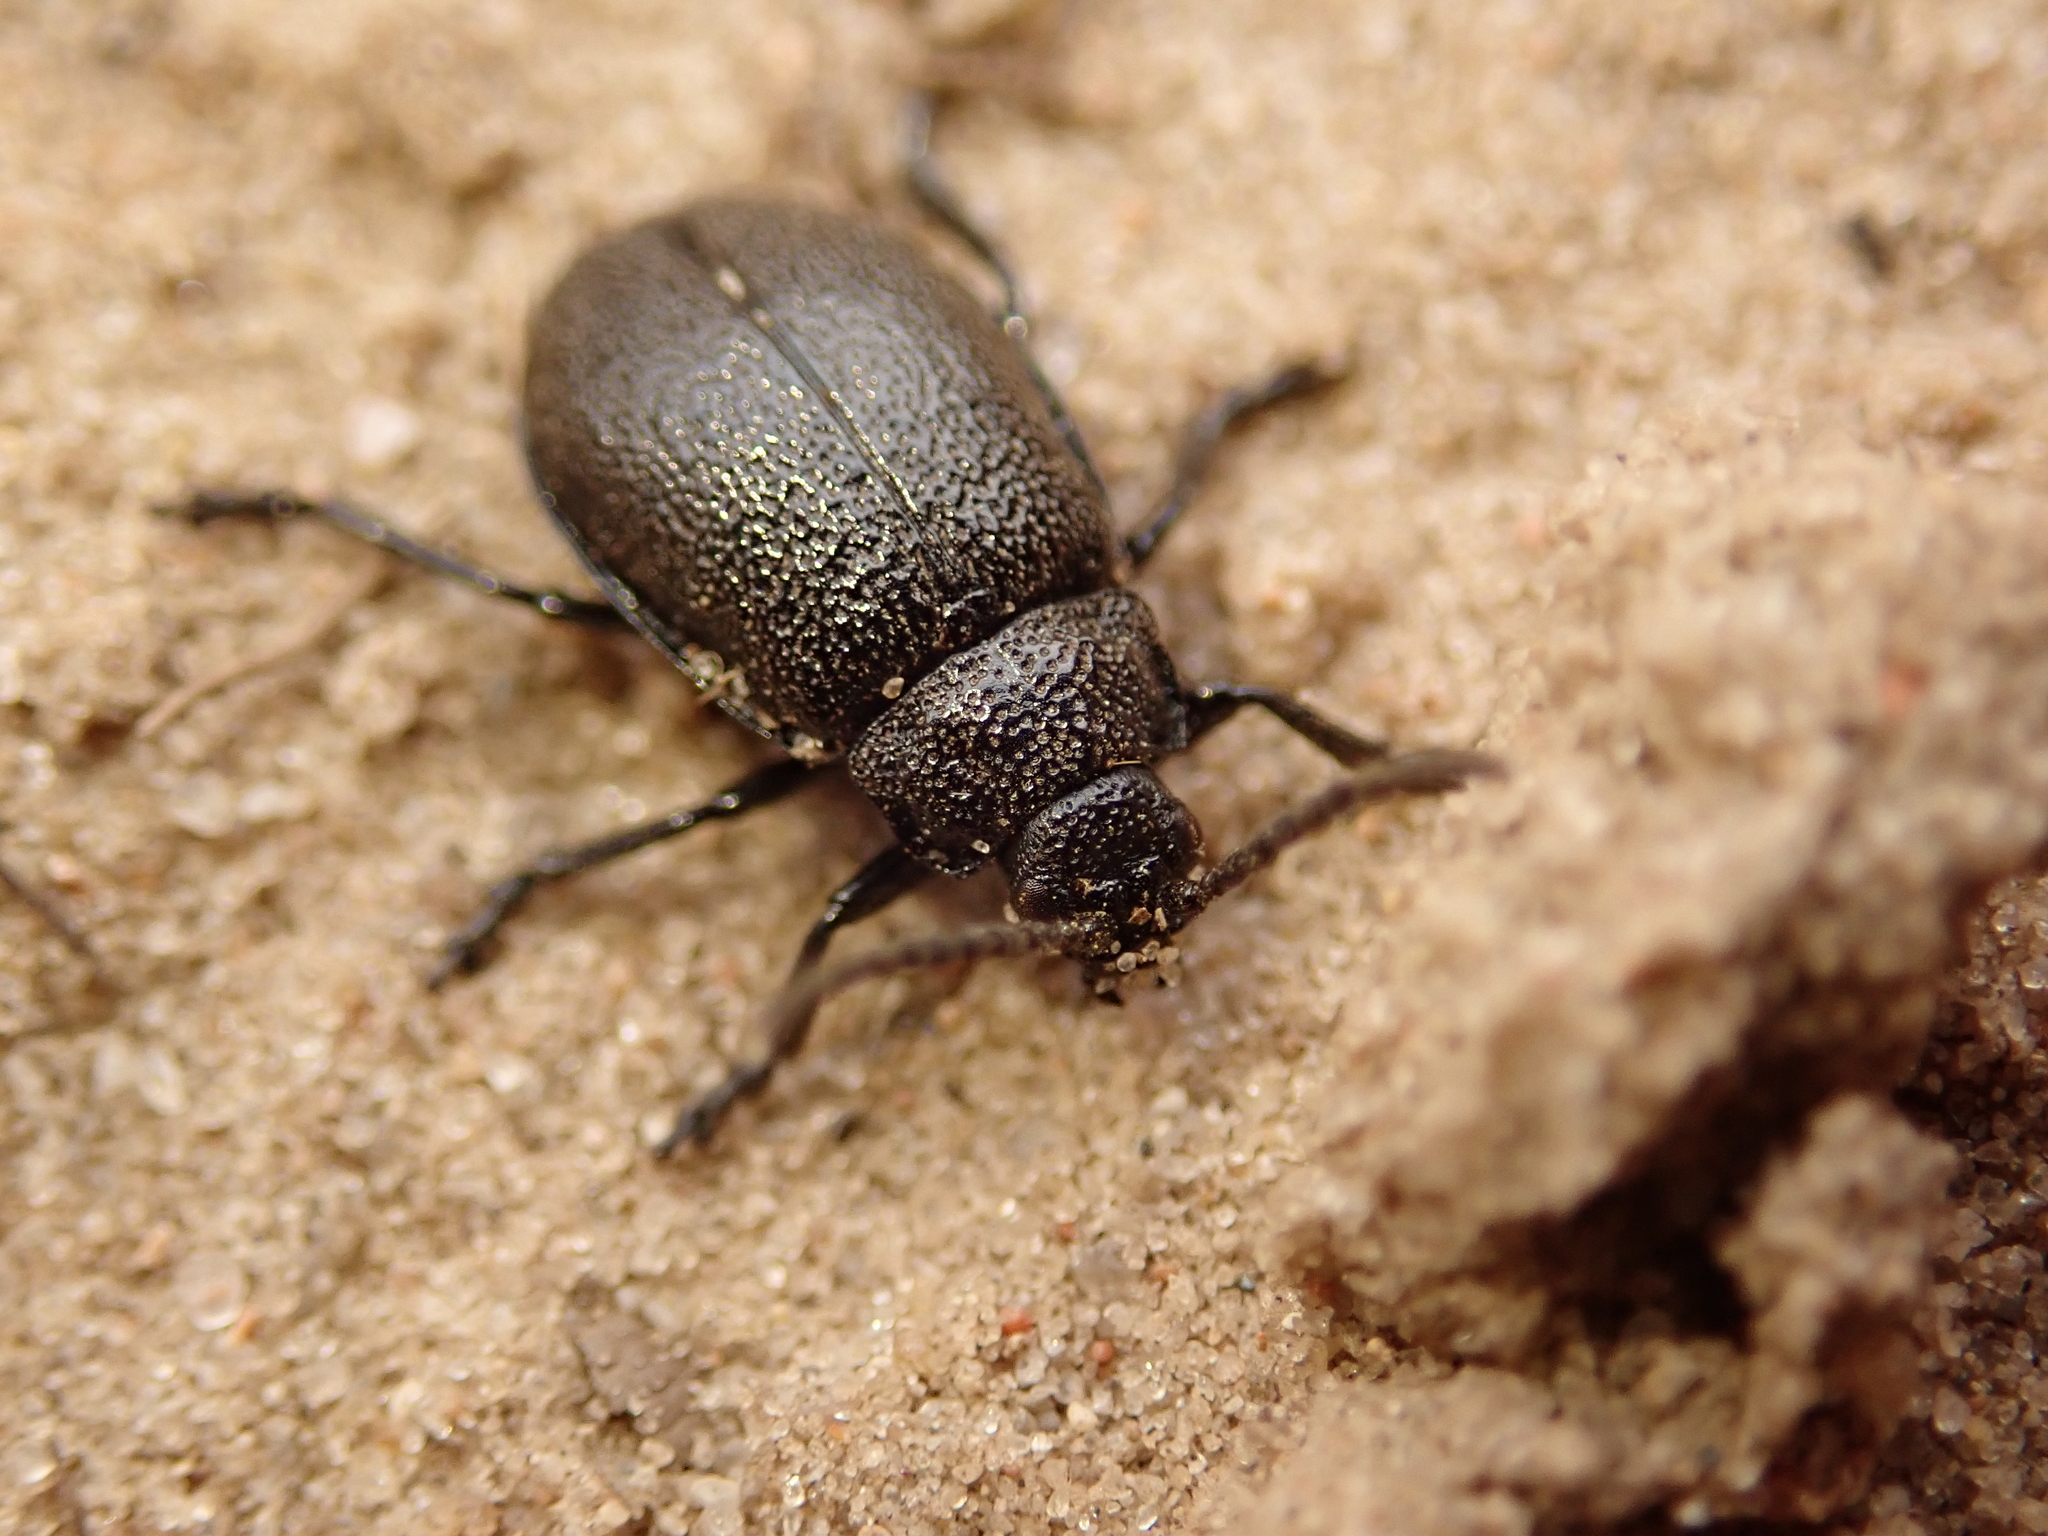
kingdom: Animalia
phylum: Arthropoda
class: Insecta
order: Coleoptera
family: Chrysomelidae
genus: Galeruca
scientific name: Galeruca tanaceti
